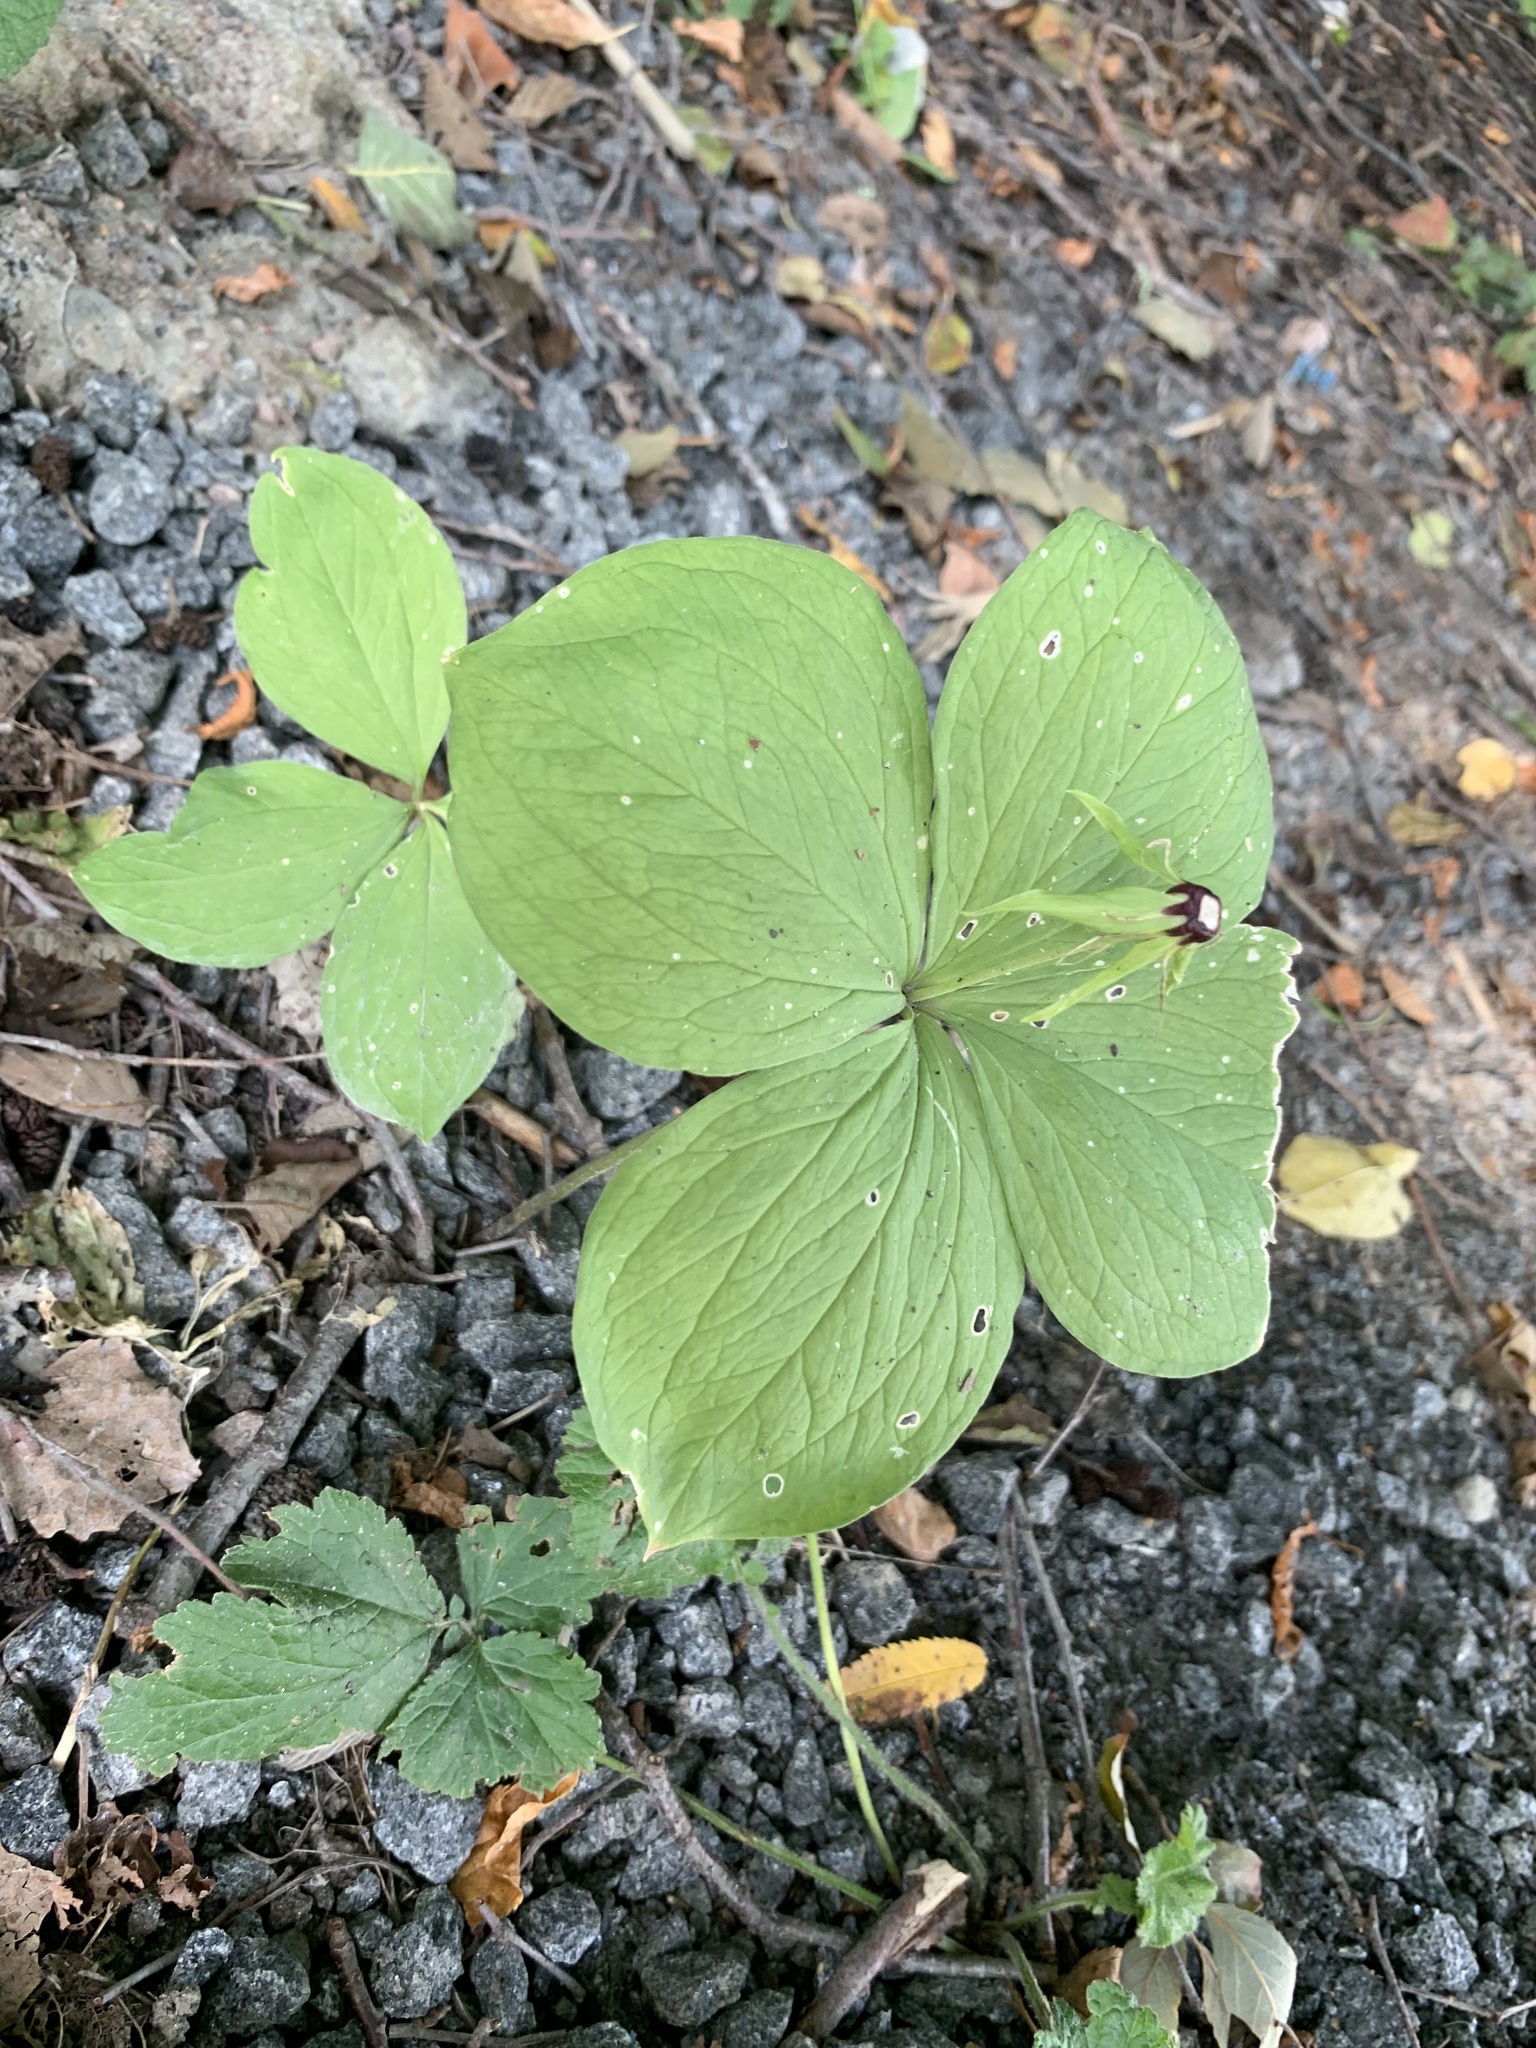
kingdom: Plantae
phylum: Tracheophyta
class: Liliopsida
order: Liliales
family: Melanthiaceae
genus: Paris
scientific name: Paris quadrifolia
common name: Herb-paris
